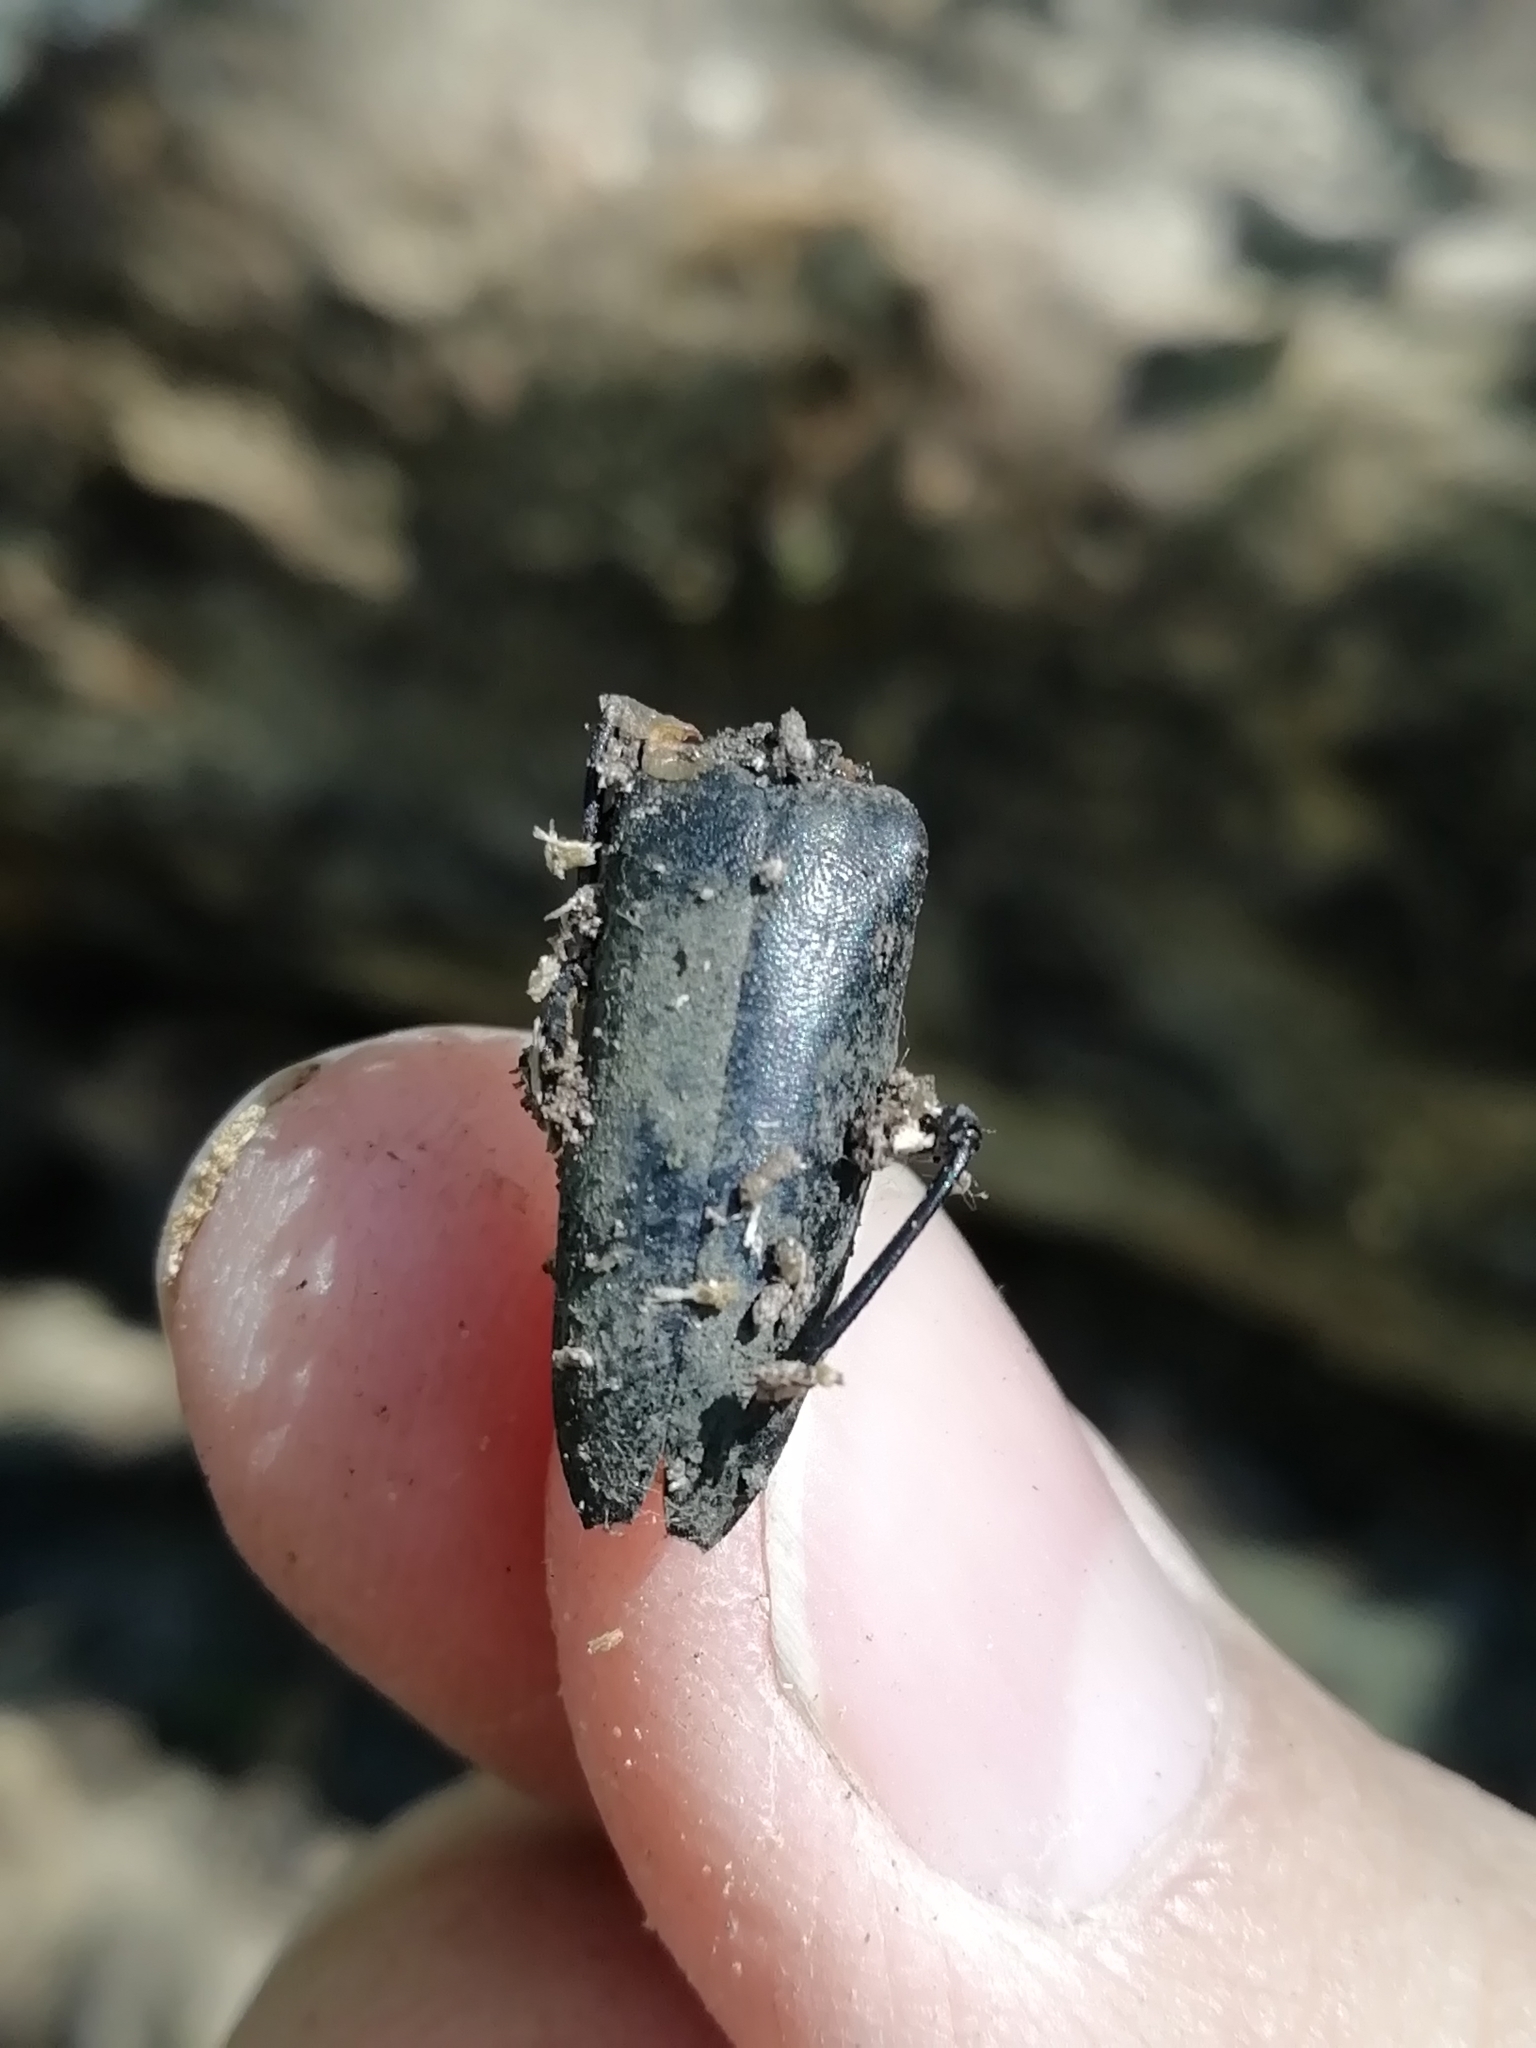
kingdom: Animalia
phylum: Arthropoda
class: Insecta
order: Coleoptera
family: Cerambycidae
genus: Leptura
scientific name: Leptura thoracica
